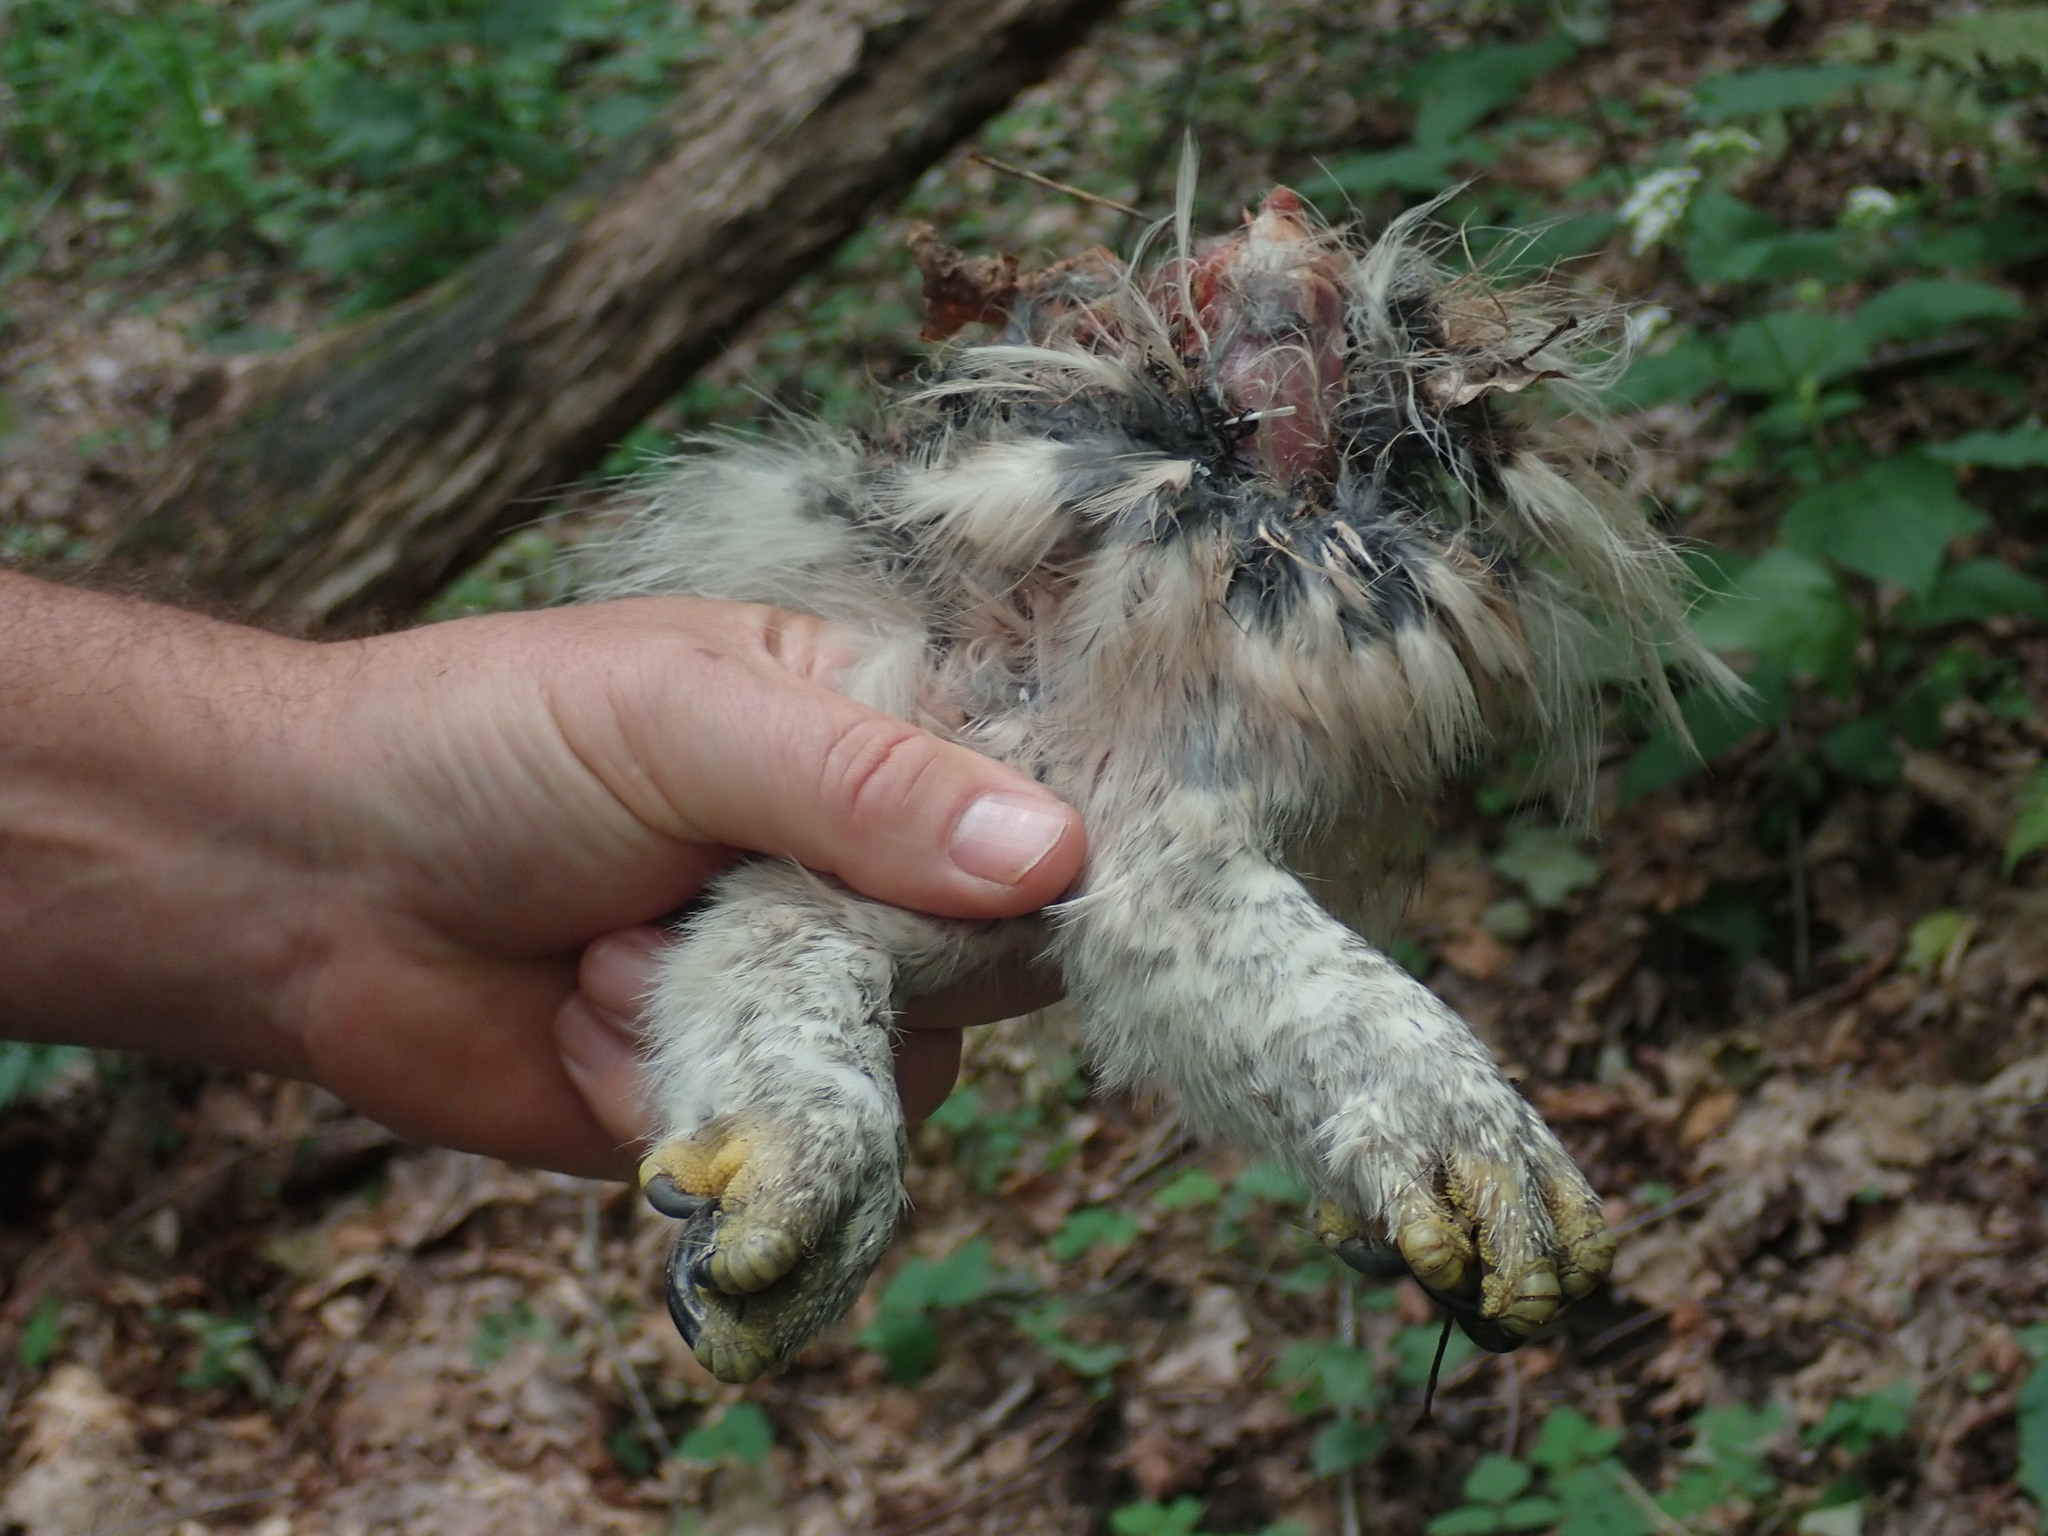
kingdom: Animalia
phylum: Chordata
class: Aves
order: Strigiformes
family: Strigidae
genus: Strix
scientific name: Strix varia
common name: Barred owl
